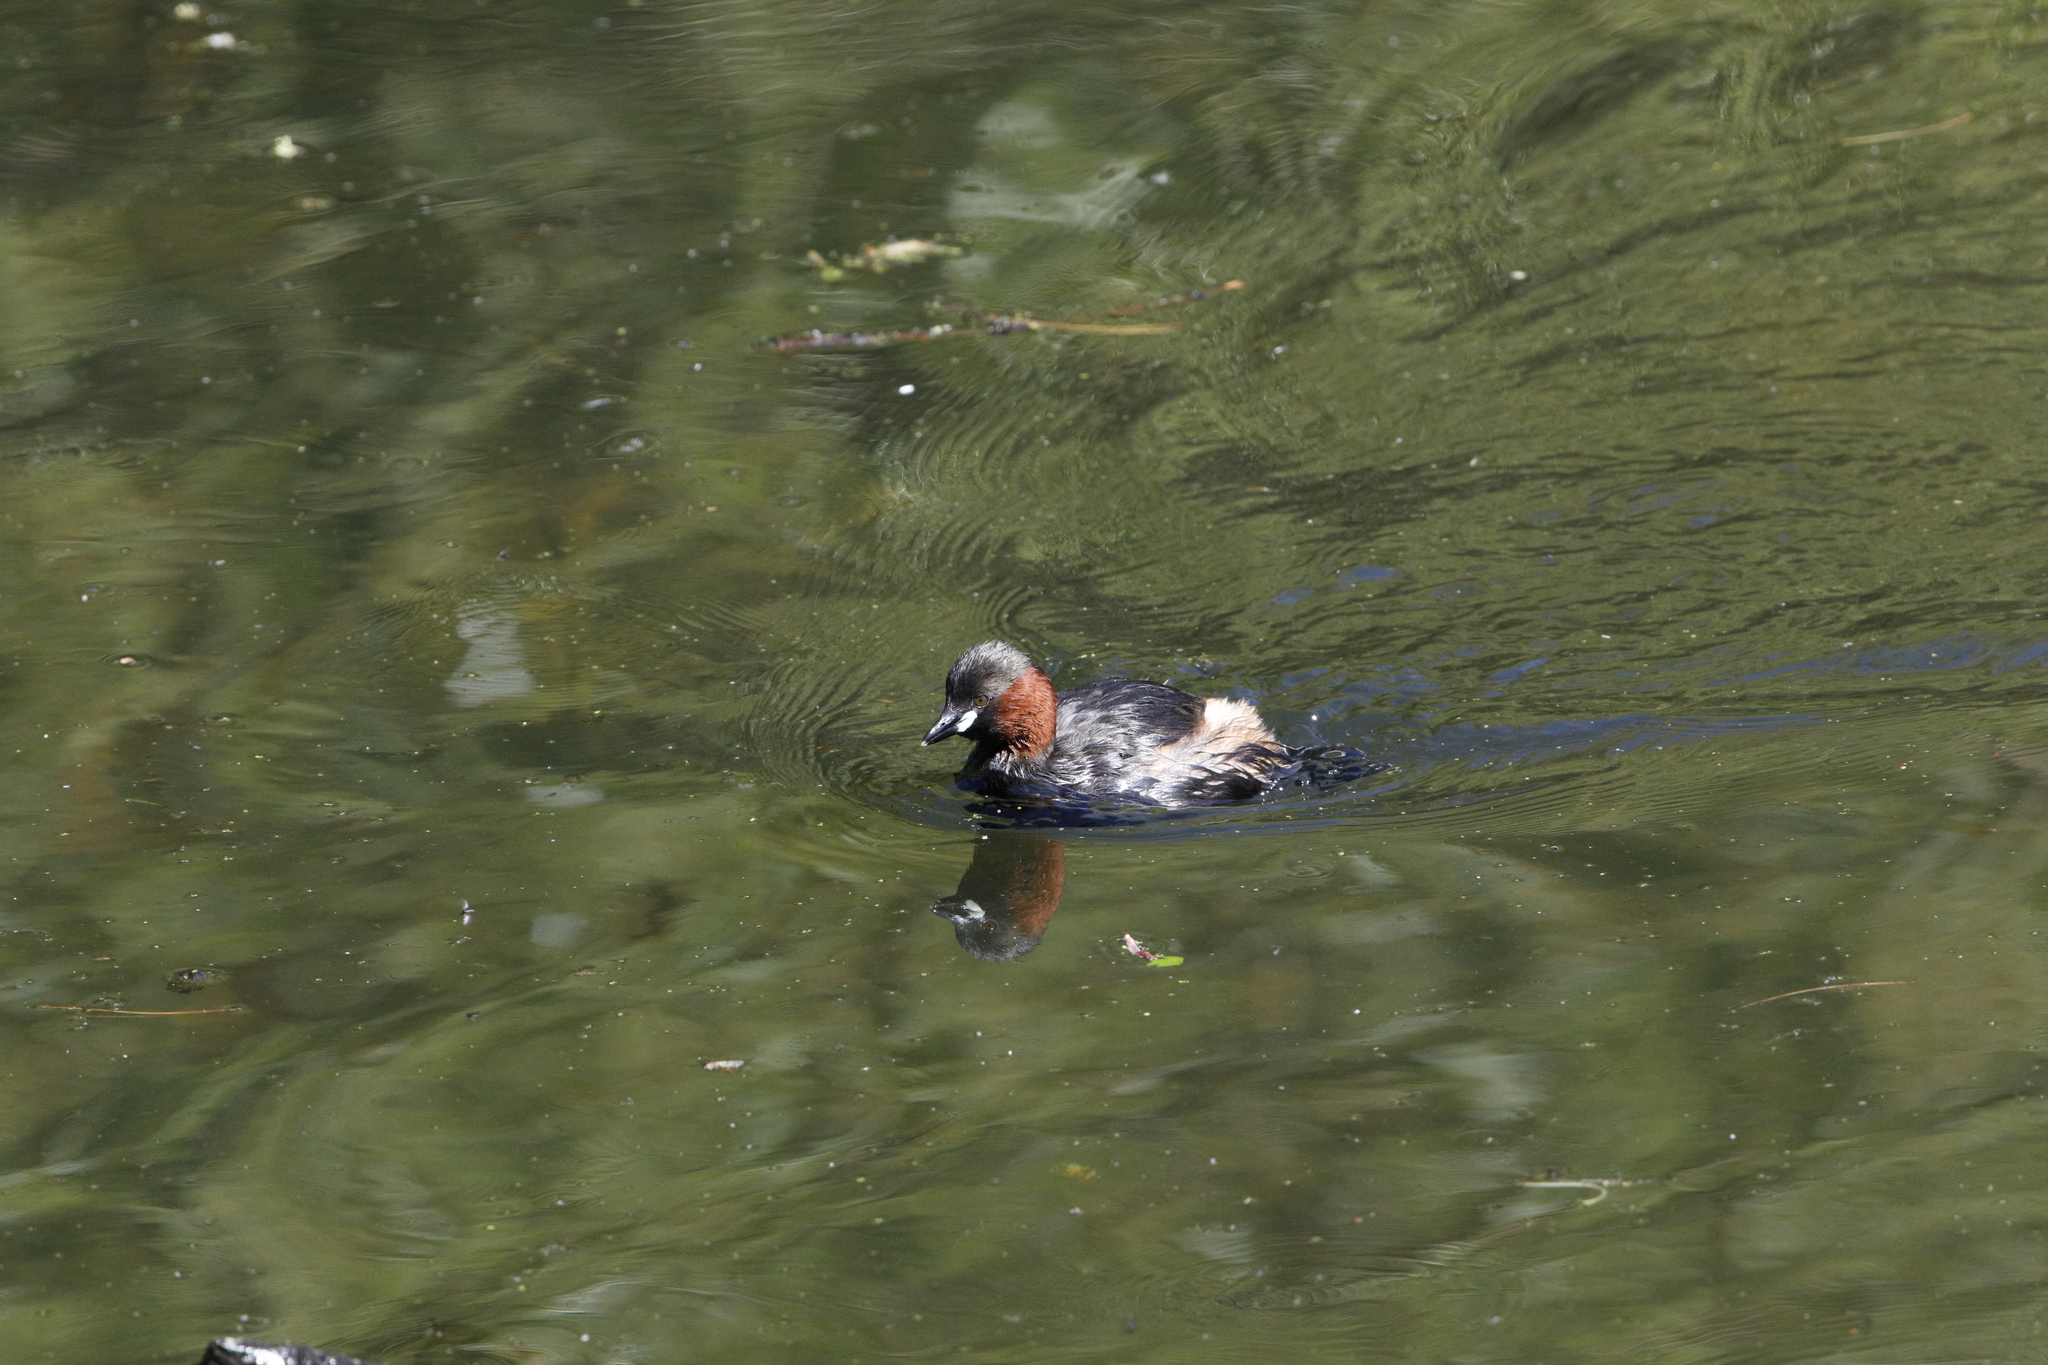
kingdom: Animalia
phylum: Chordata
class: Aves
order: Podicipediformes
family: Podicipedidae
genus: Tachybaptus
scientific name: Tachybaptus ruficollis
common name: Little grebe
